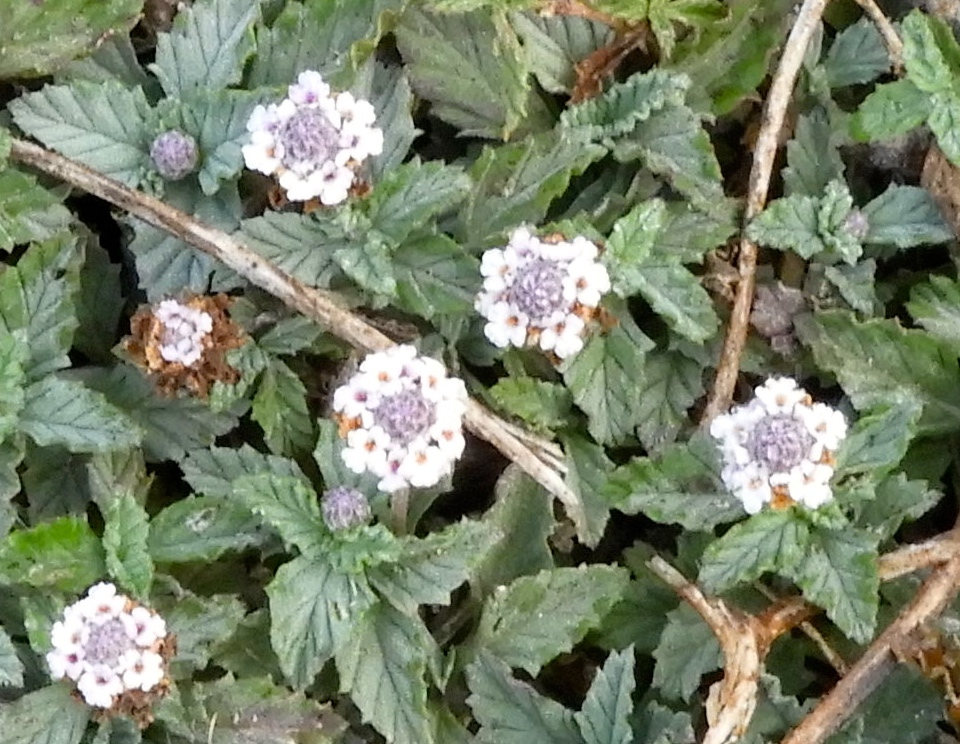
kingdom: Plantae
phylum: Tracheophyta
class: Magnoliopsida
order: Lamiales
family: Verbenaceae
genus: Phyla
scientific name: Phyla nodiflora
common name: Frogfruit
